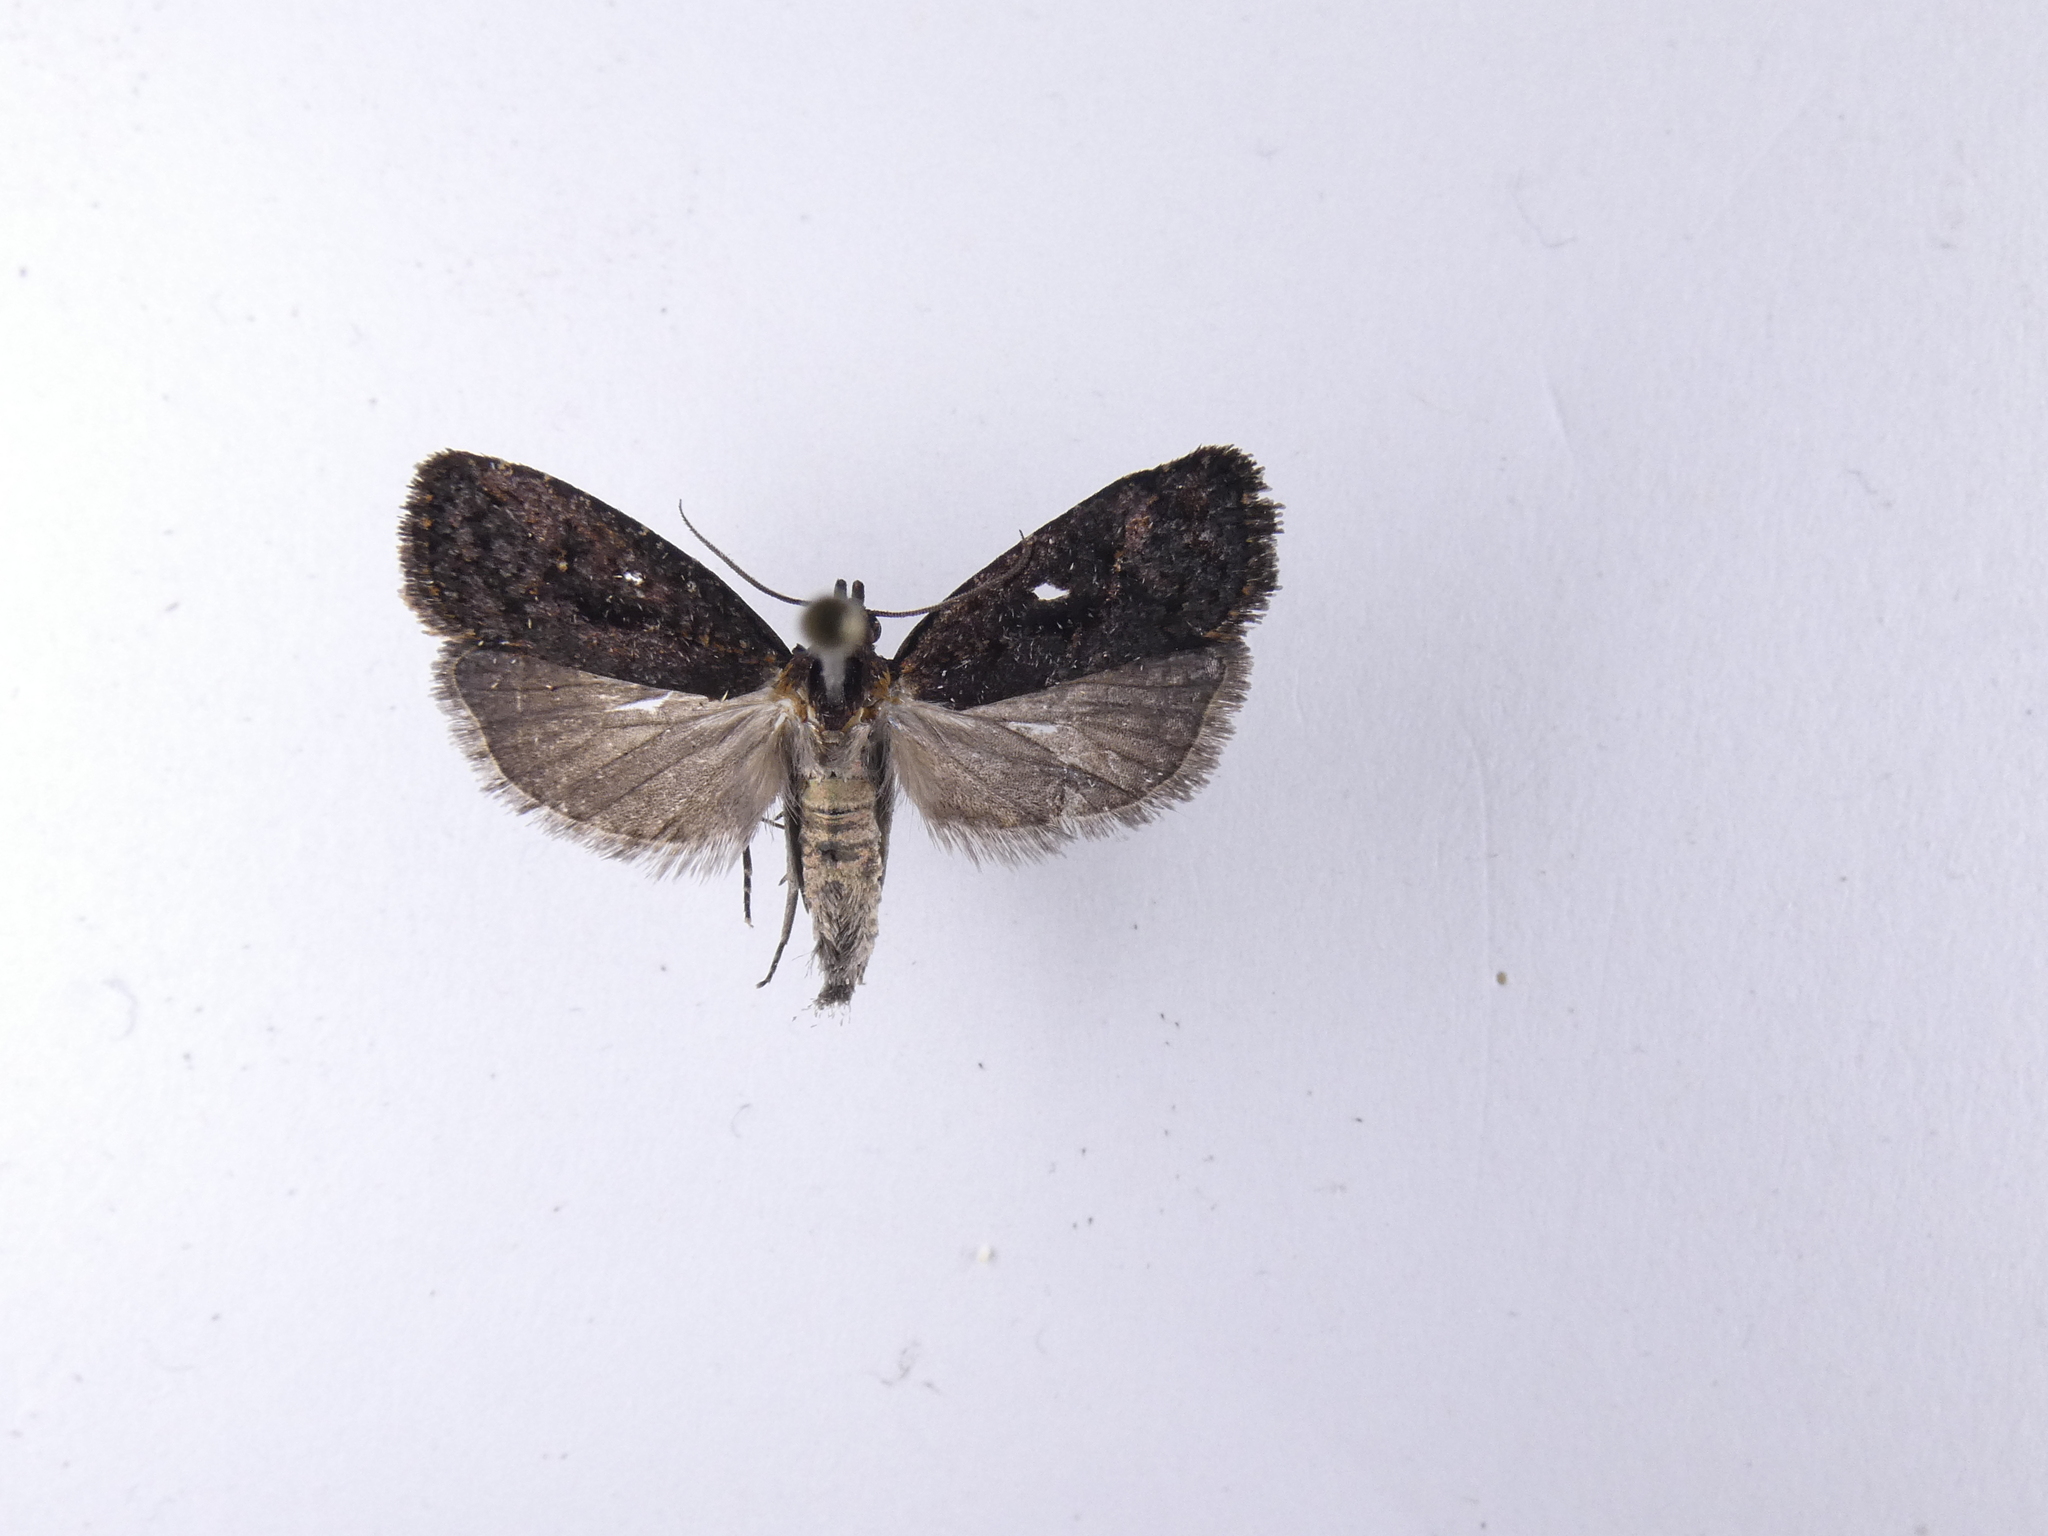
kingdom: Animalia
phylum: Arthropoda
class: Insecta
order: Lepidoptera
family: Tortricidae
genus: Cryptaspasma
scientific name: Cryptaspasma querula
